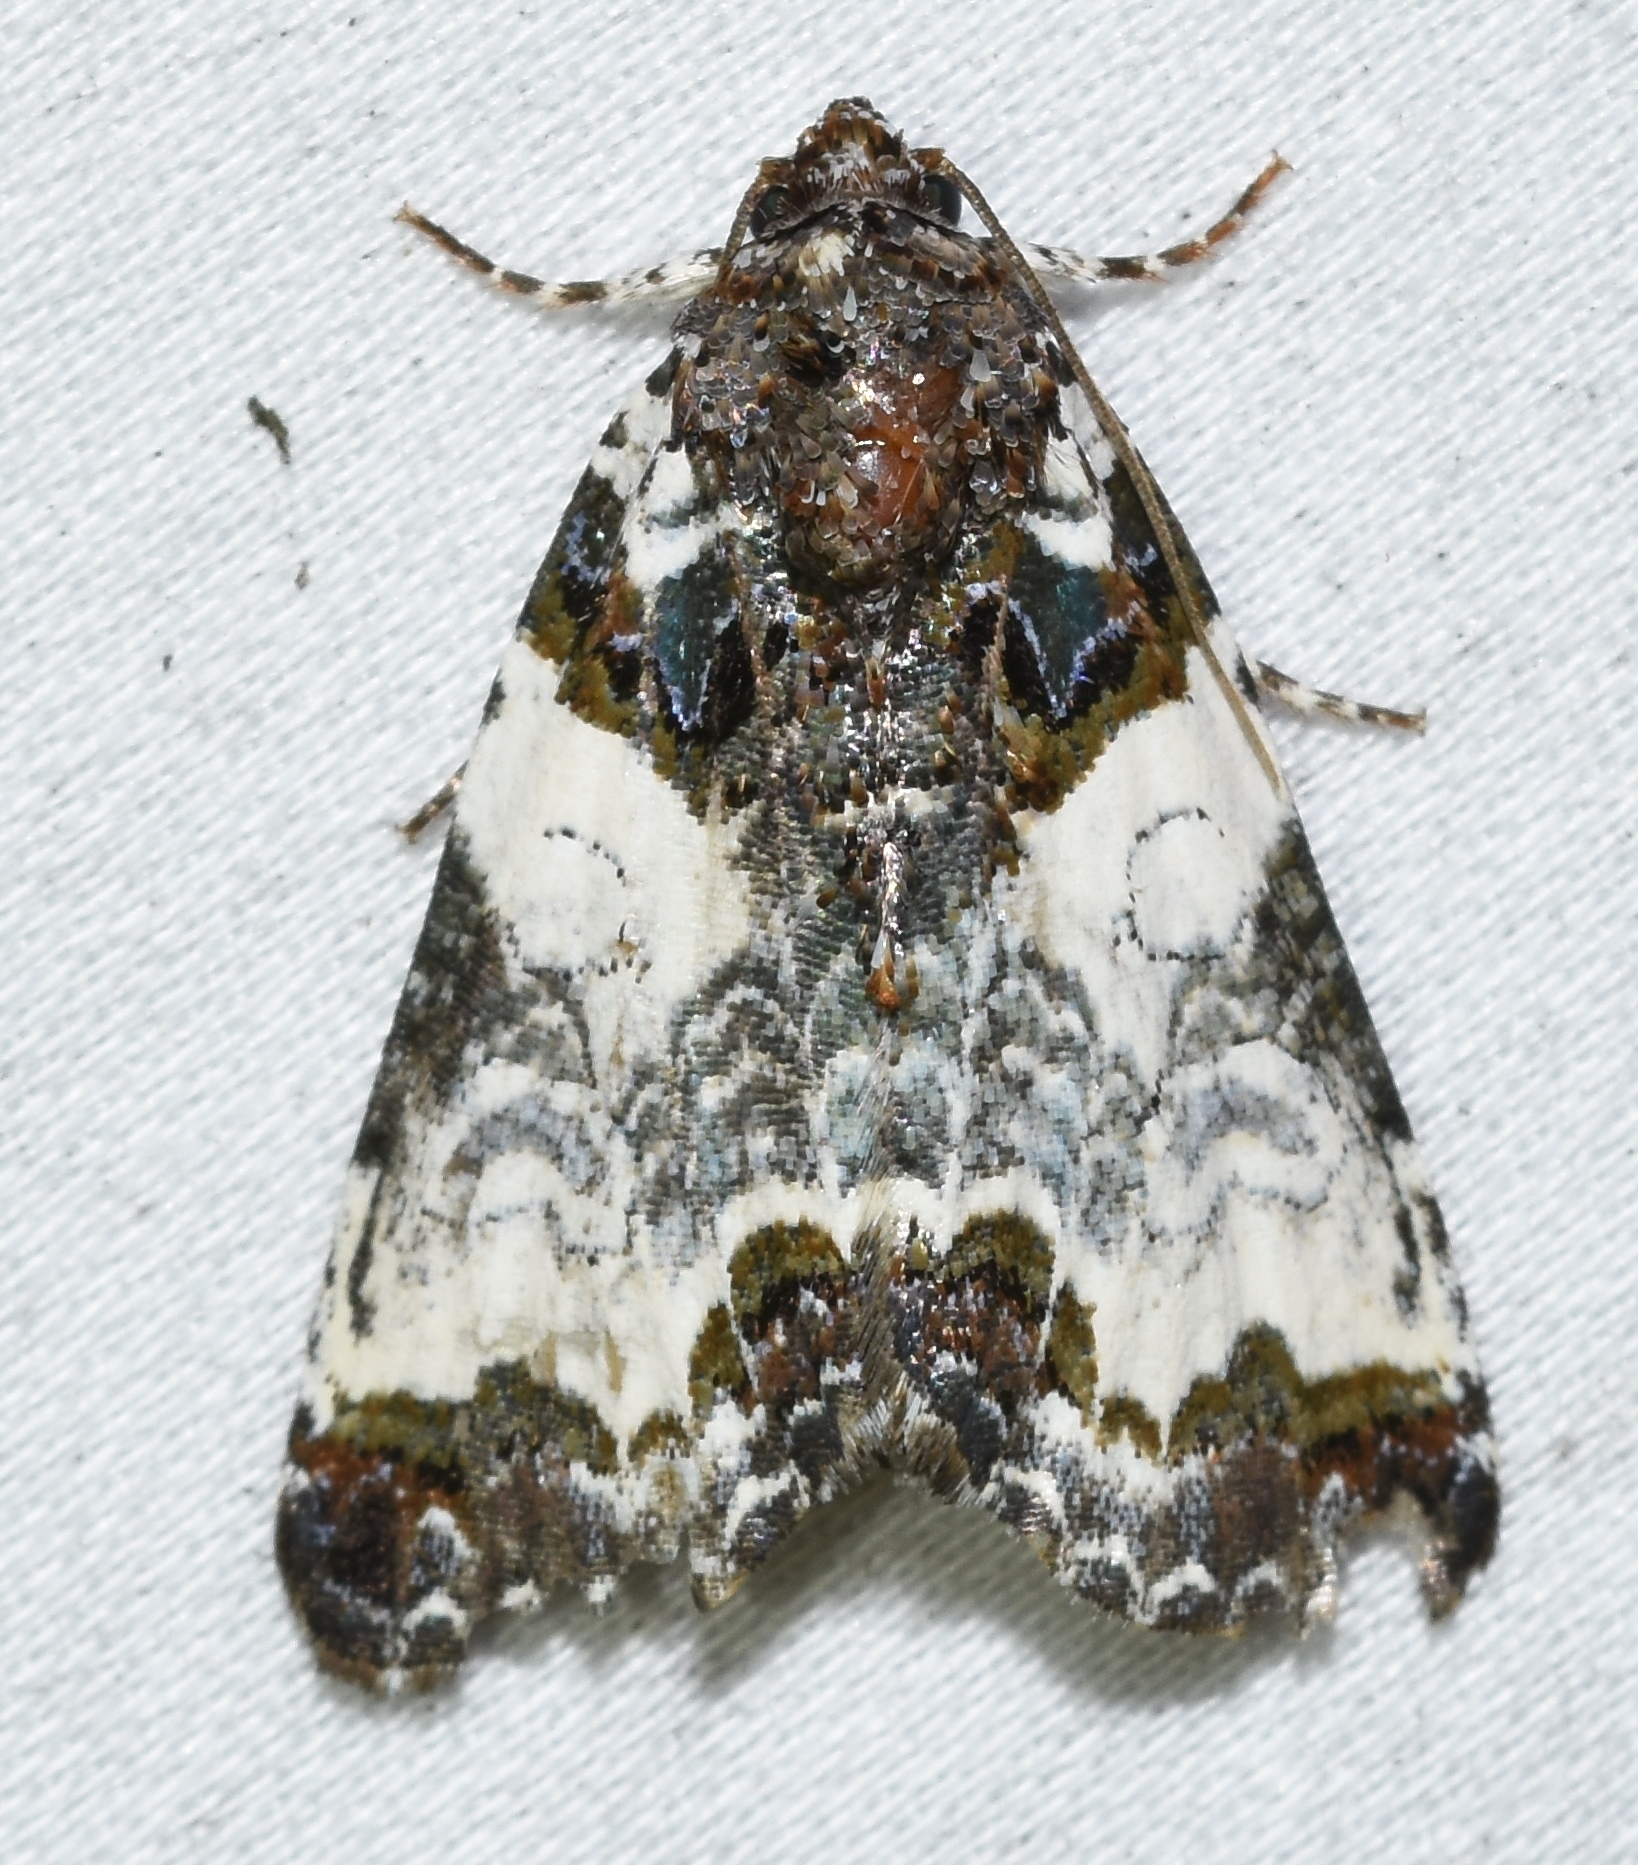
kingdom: Animalia
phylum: Arthropoda
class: Insecta
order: Lepidoptera
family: Noctuidae
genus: Cerma
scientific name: Cerma cerintha
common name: Tufted bird-dropping moth
